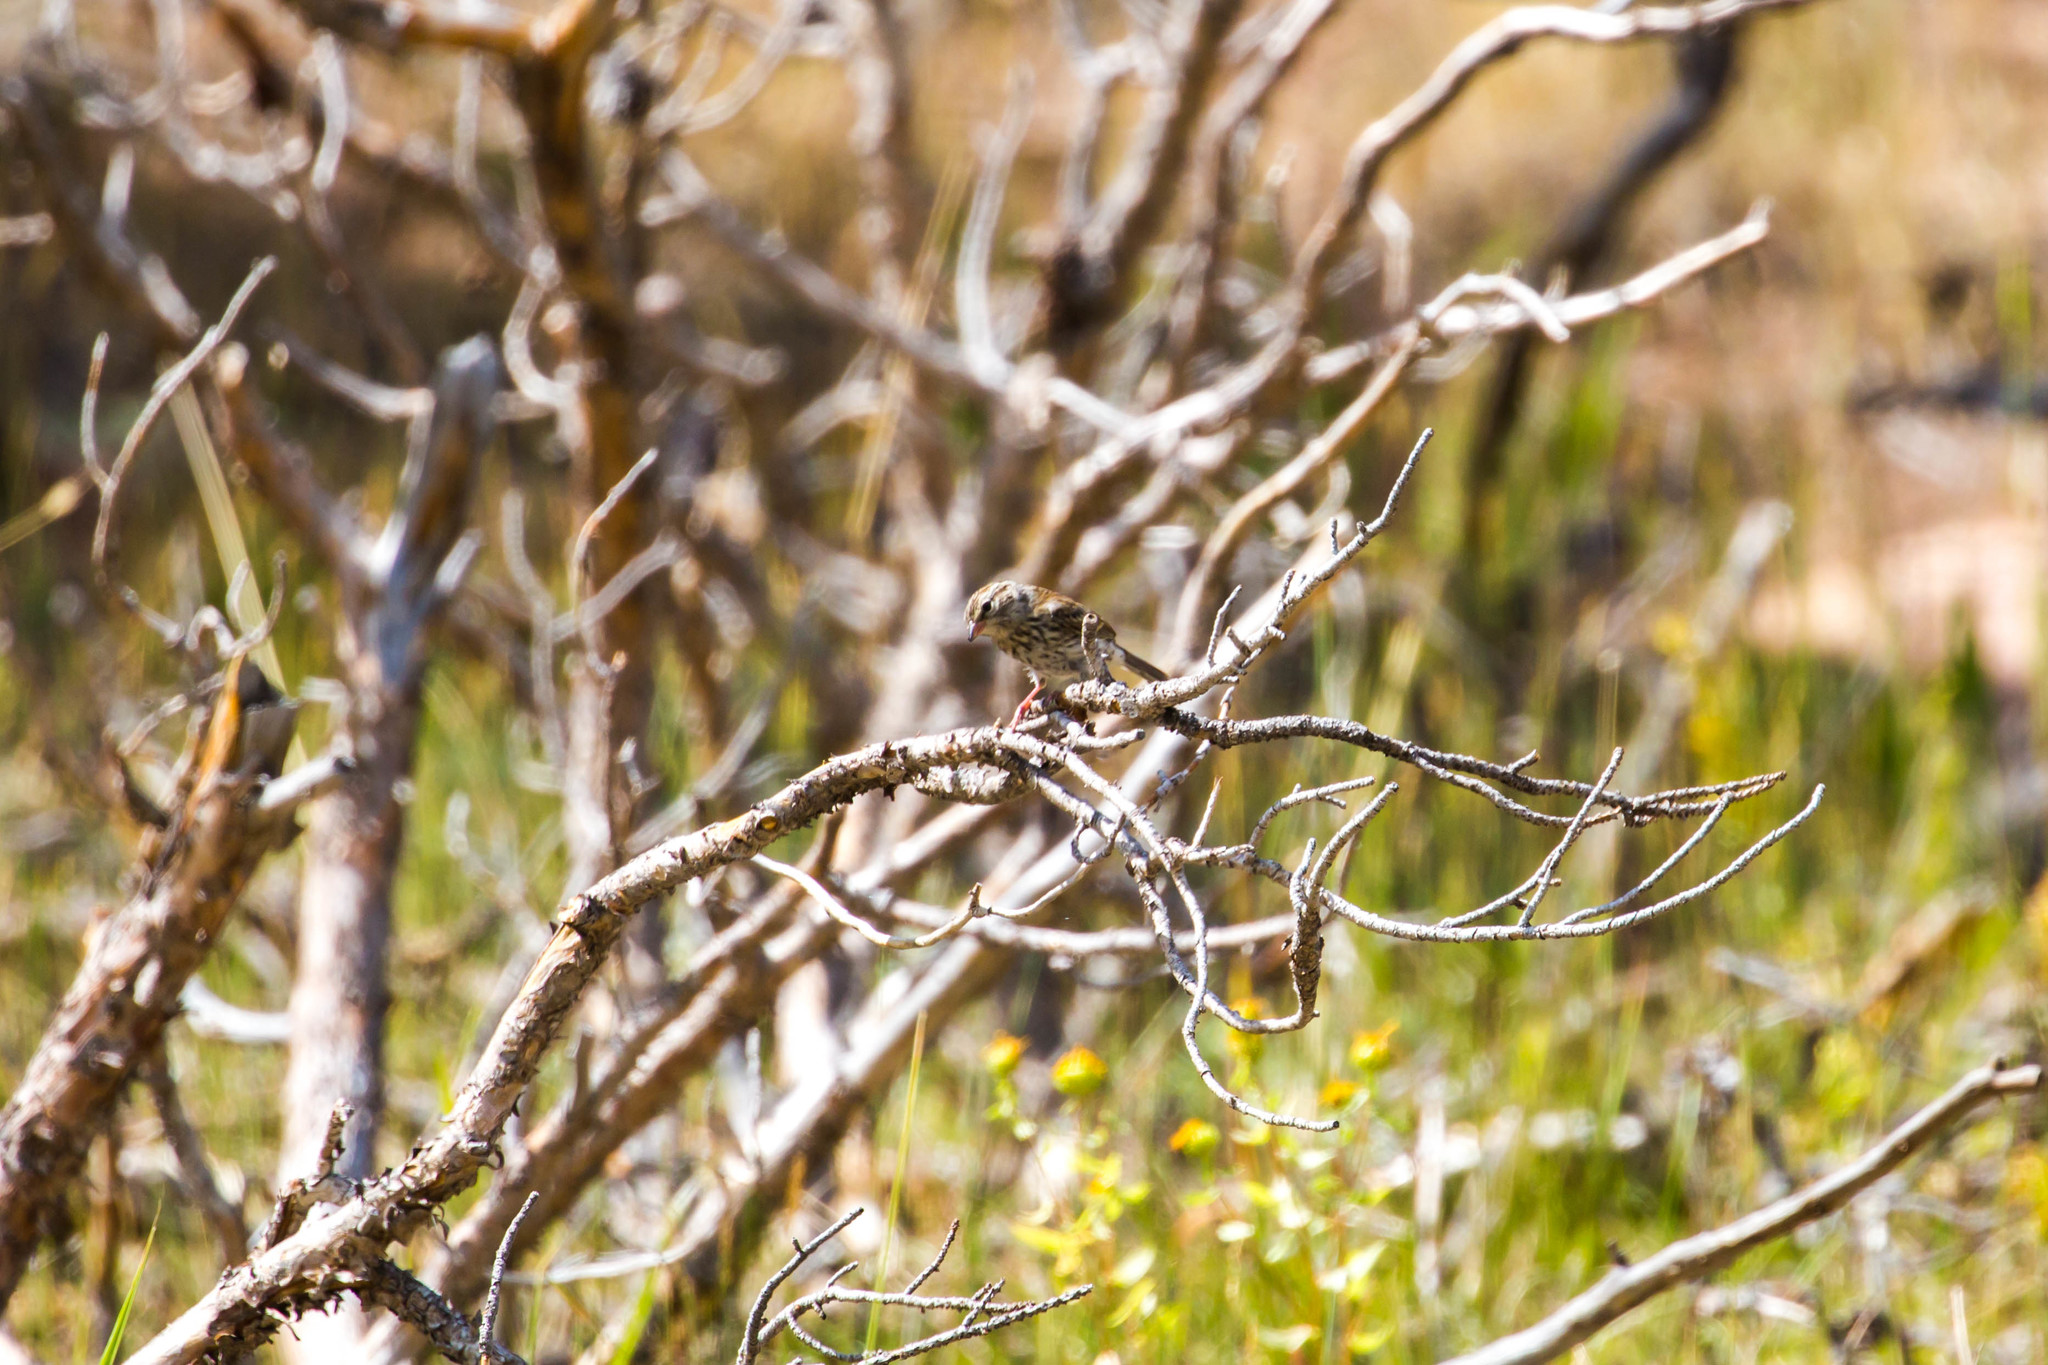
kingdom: Animalia
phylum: Chordata
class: Aves
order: Passeriformes
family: Passerellidae
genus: Spizella
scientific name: Spizella passerina
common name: Chipping sparrow
